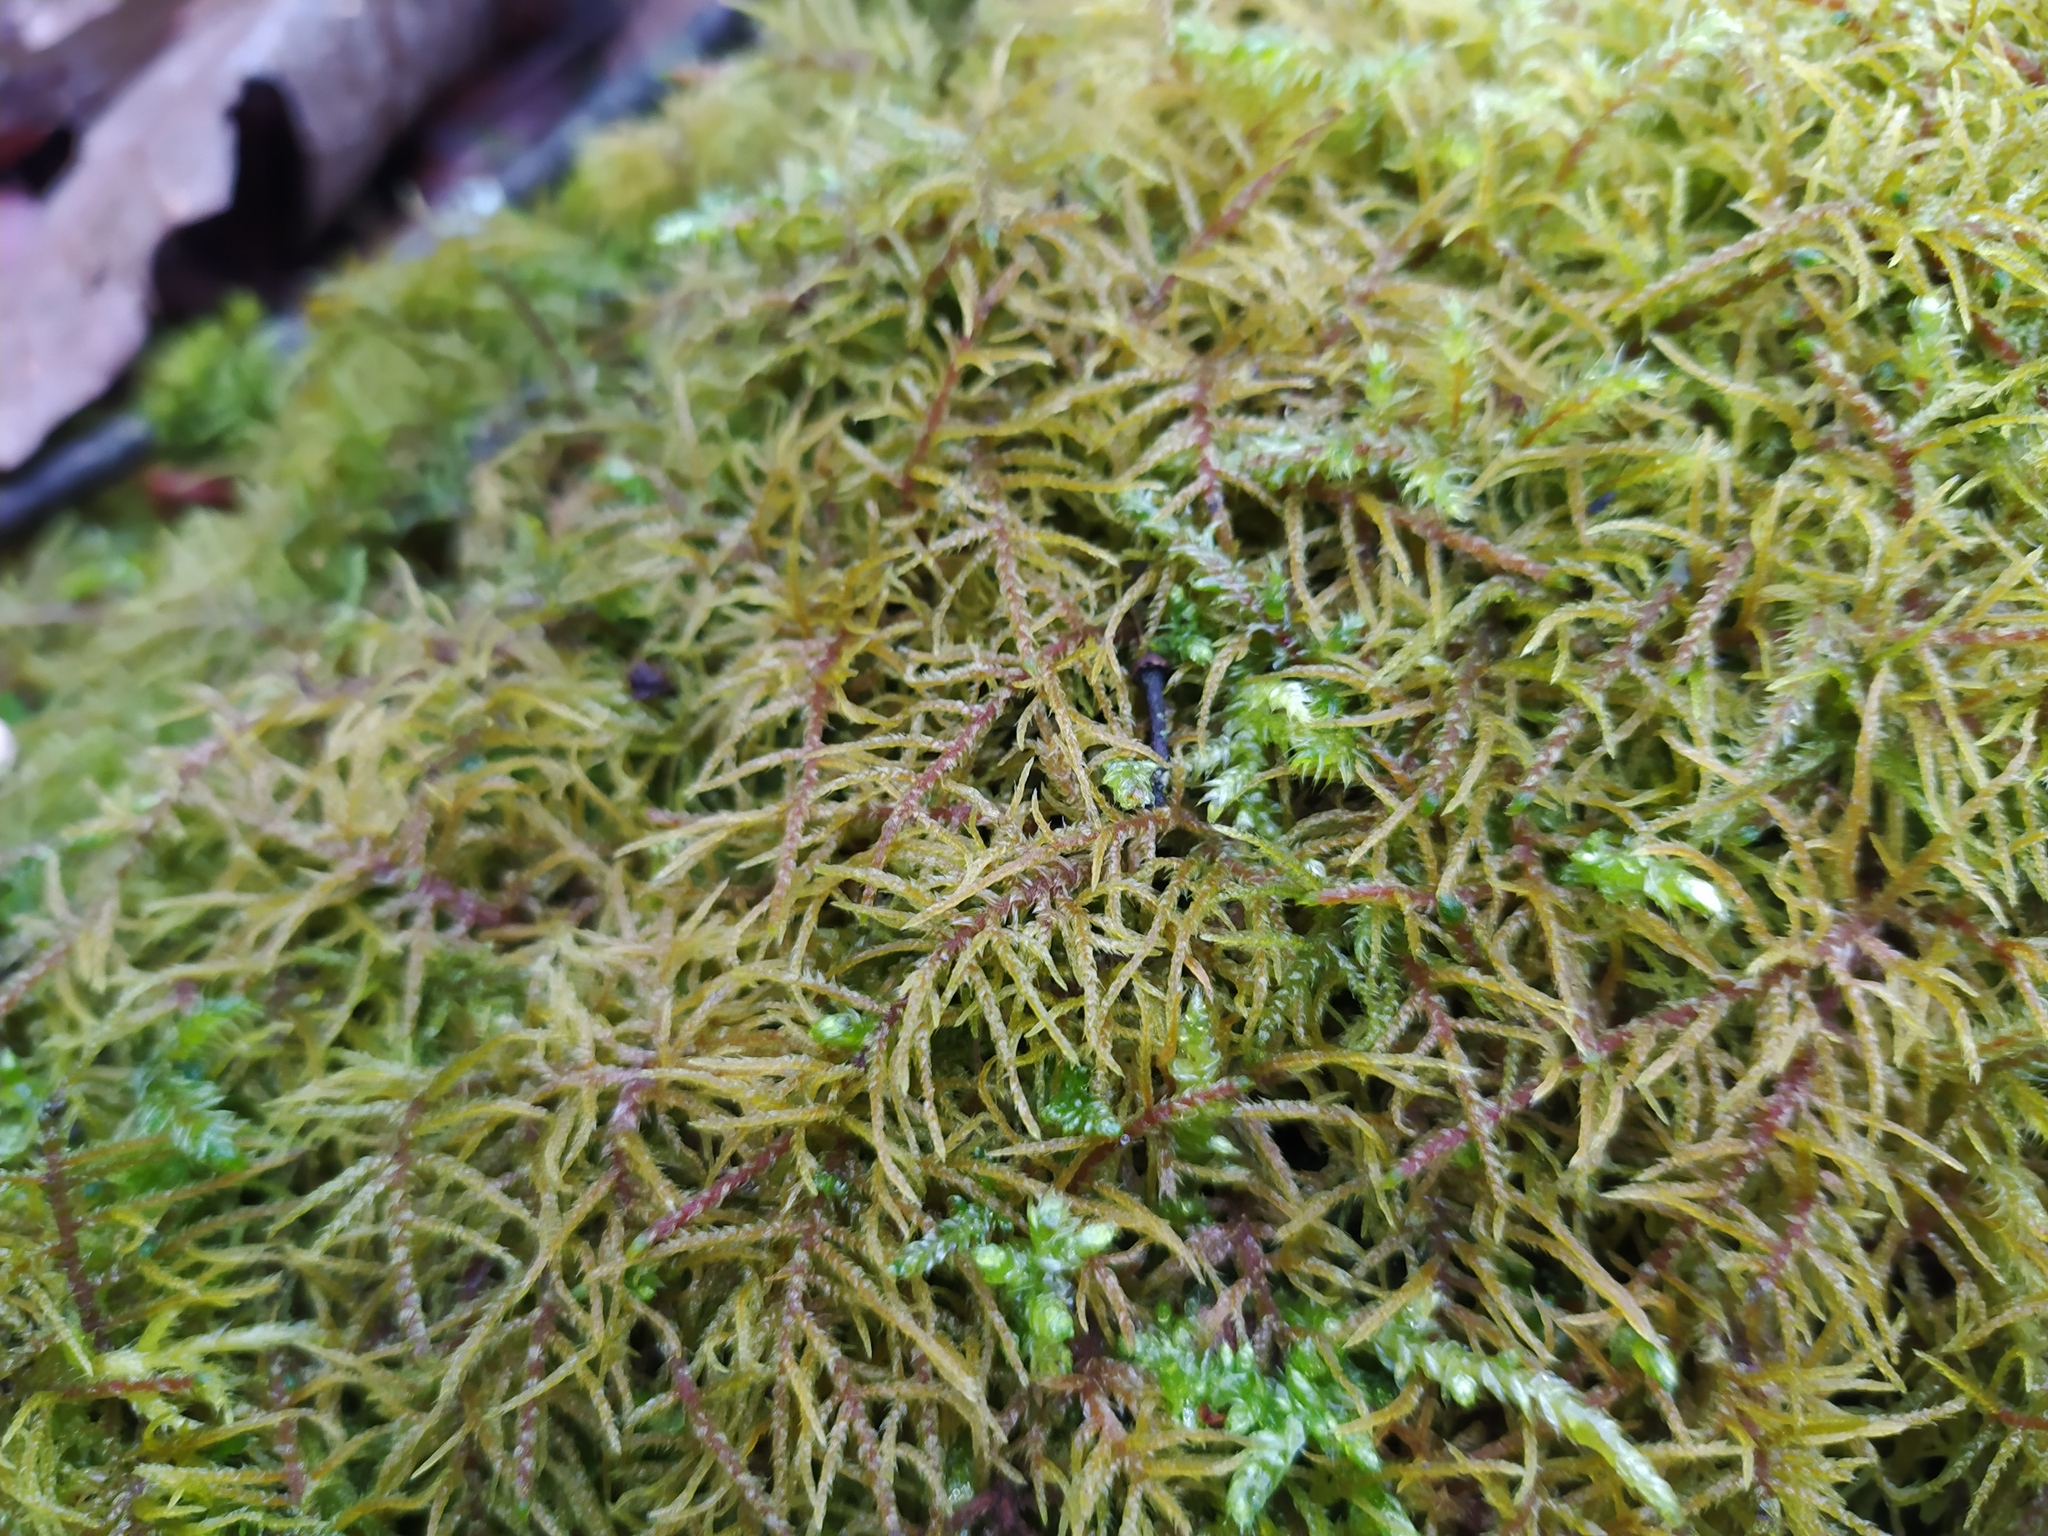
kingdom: Plantae
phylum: Bryophyta
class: Bryopsida
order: Hypnales
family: Hylocomiaceae
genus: Hylocomiastrum
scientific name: Hylocomiastrum umbratum
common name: Shaded woods moss
